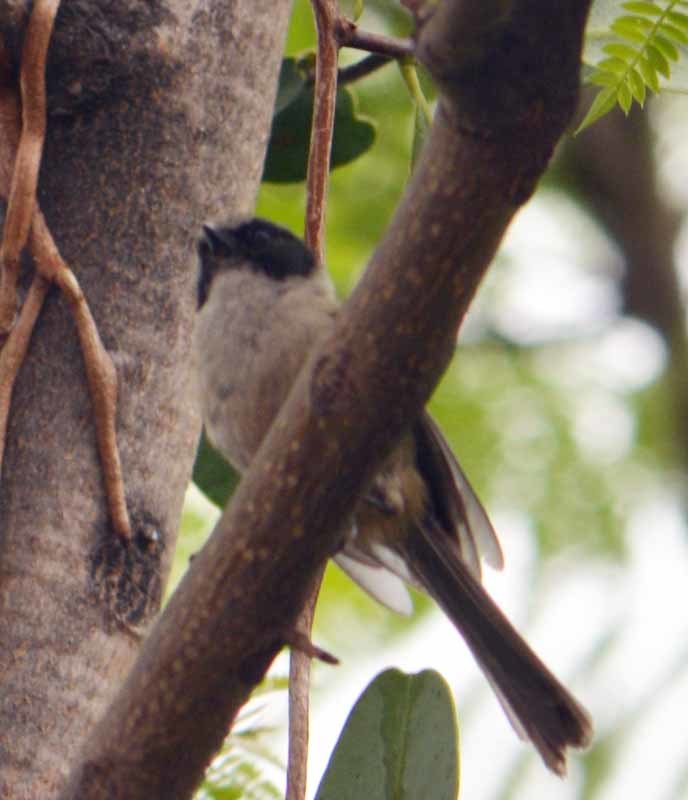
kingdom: Animalia
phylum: Chordata
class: Aves
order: Passeriformes
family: Aegithalidae
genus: Psaltriparus
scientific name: Psaltriparus minimus
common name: American bushtit
